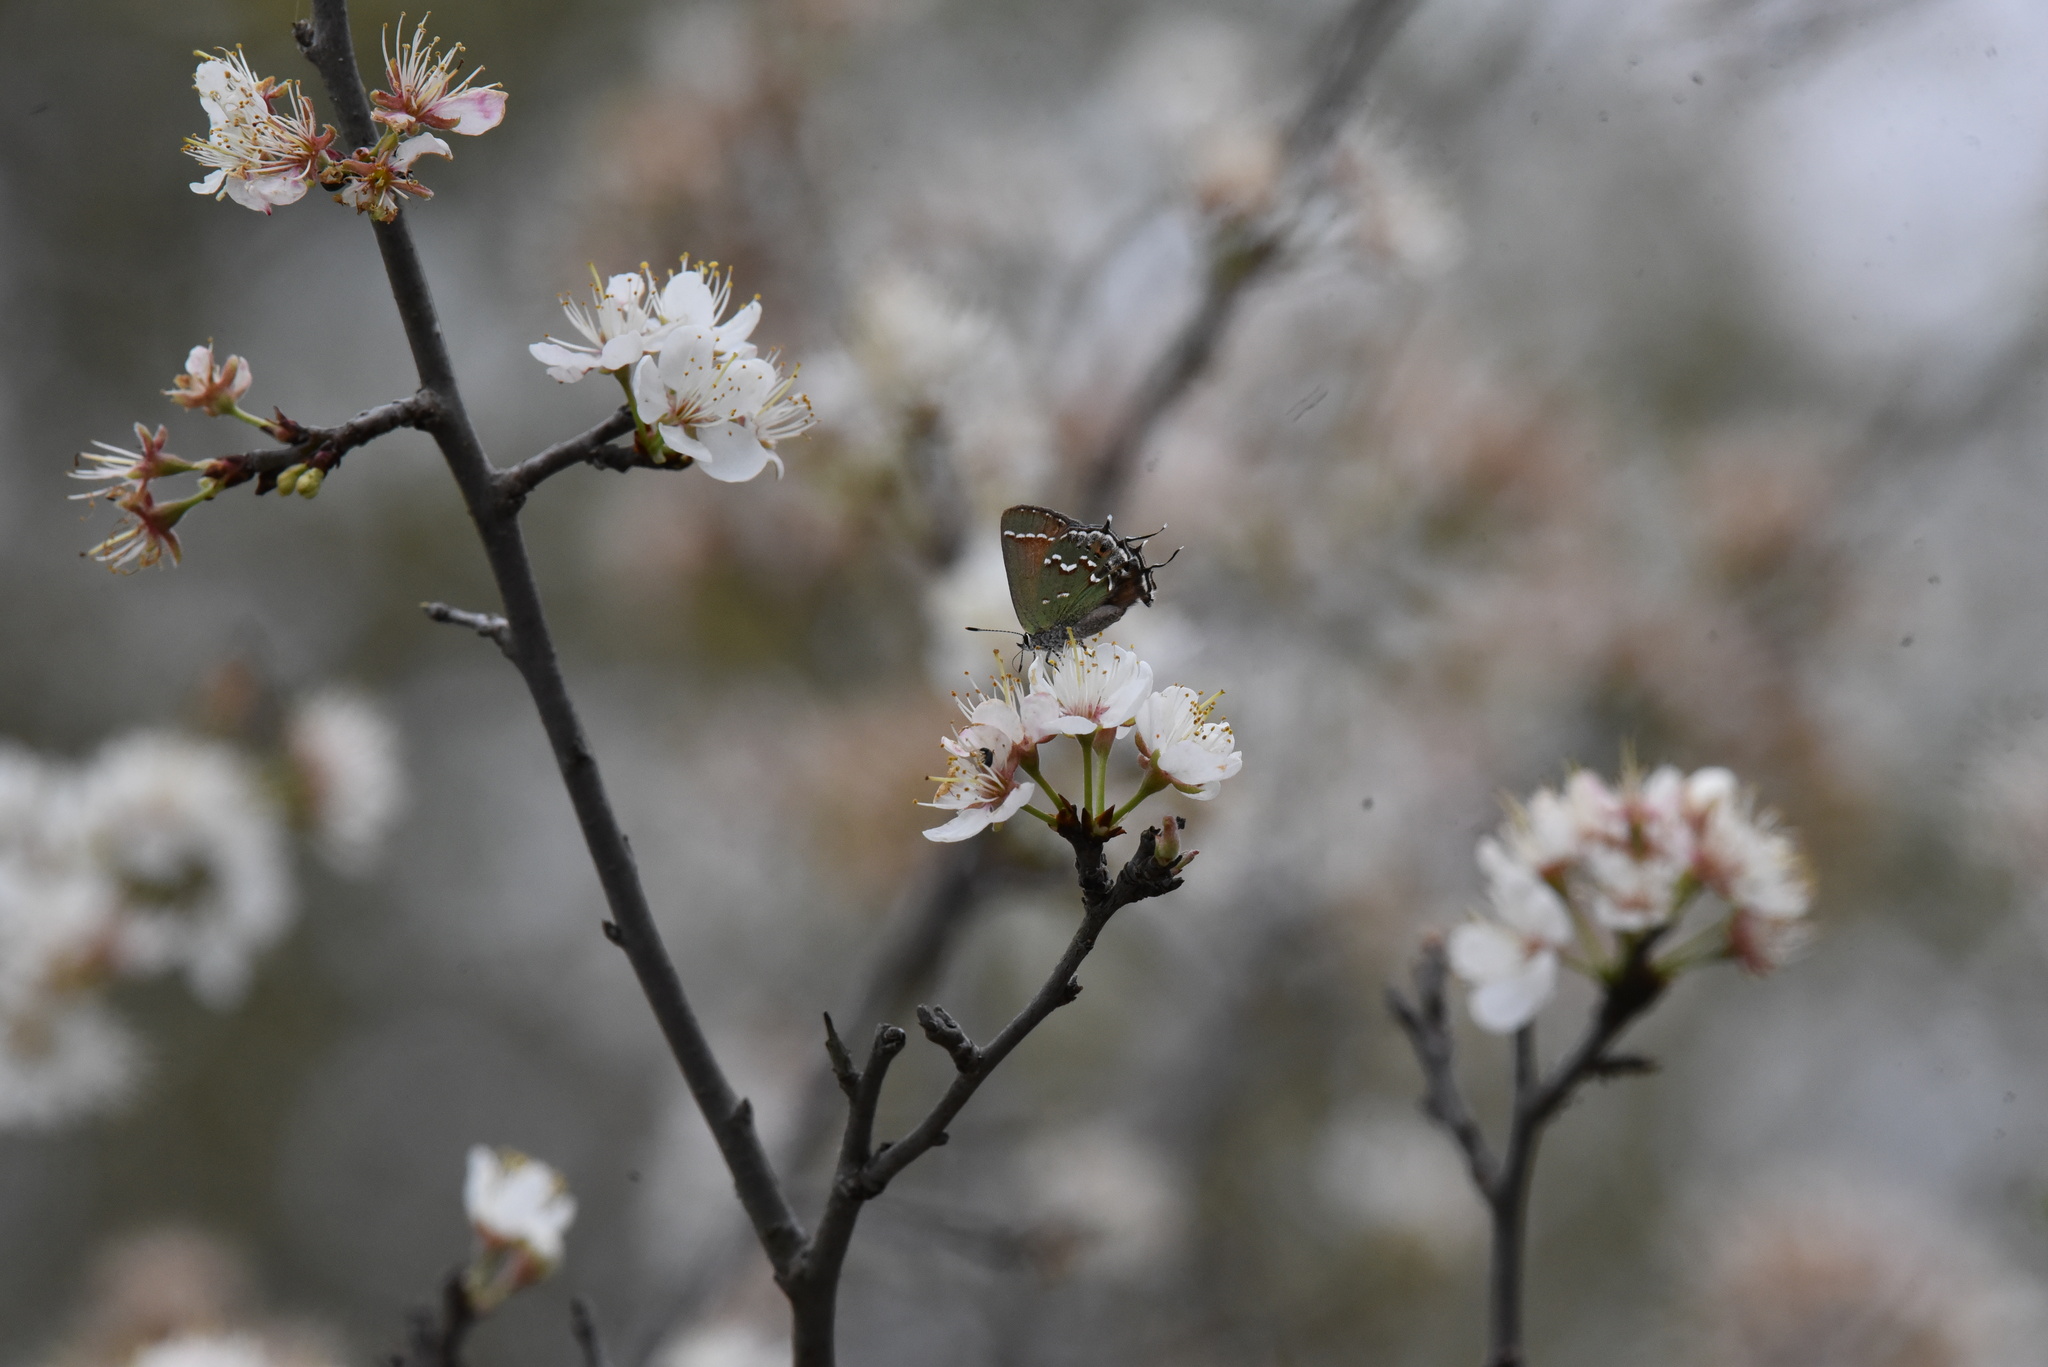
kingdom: Animalia
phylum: Arthropoda
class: Insecta
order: Lepidoptera
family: Lycaenidae
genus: Mitoura
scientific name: Mitoura gryneus
